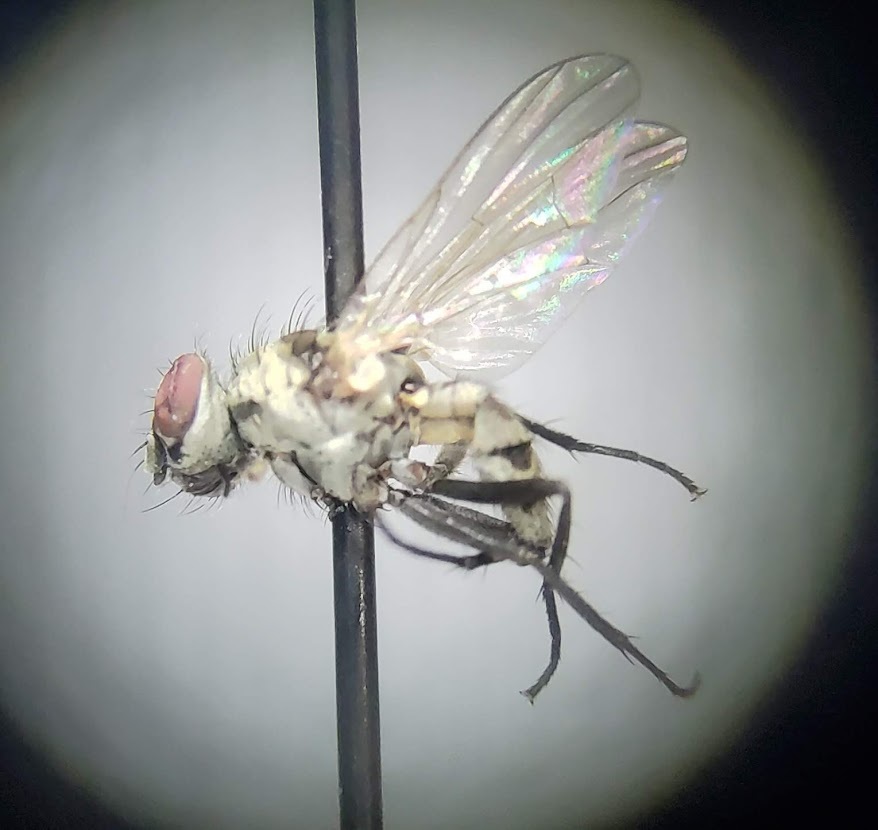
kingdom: Animalia
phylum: Arthropoda
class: Insecta
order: Diptera
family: Anthomyiidae
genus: Anthomyia
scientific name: Anthomyia illocata
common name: Fly
